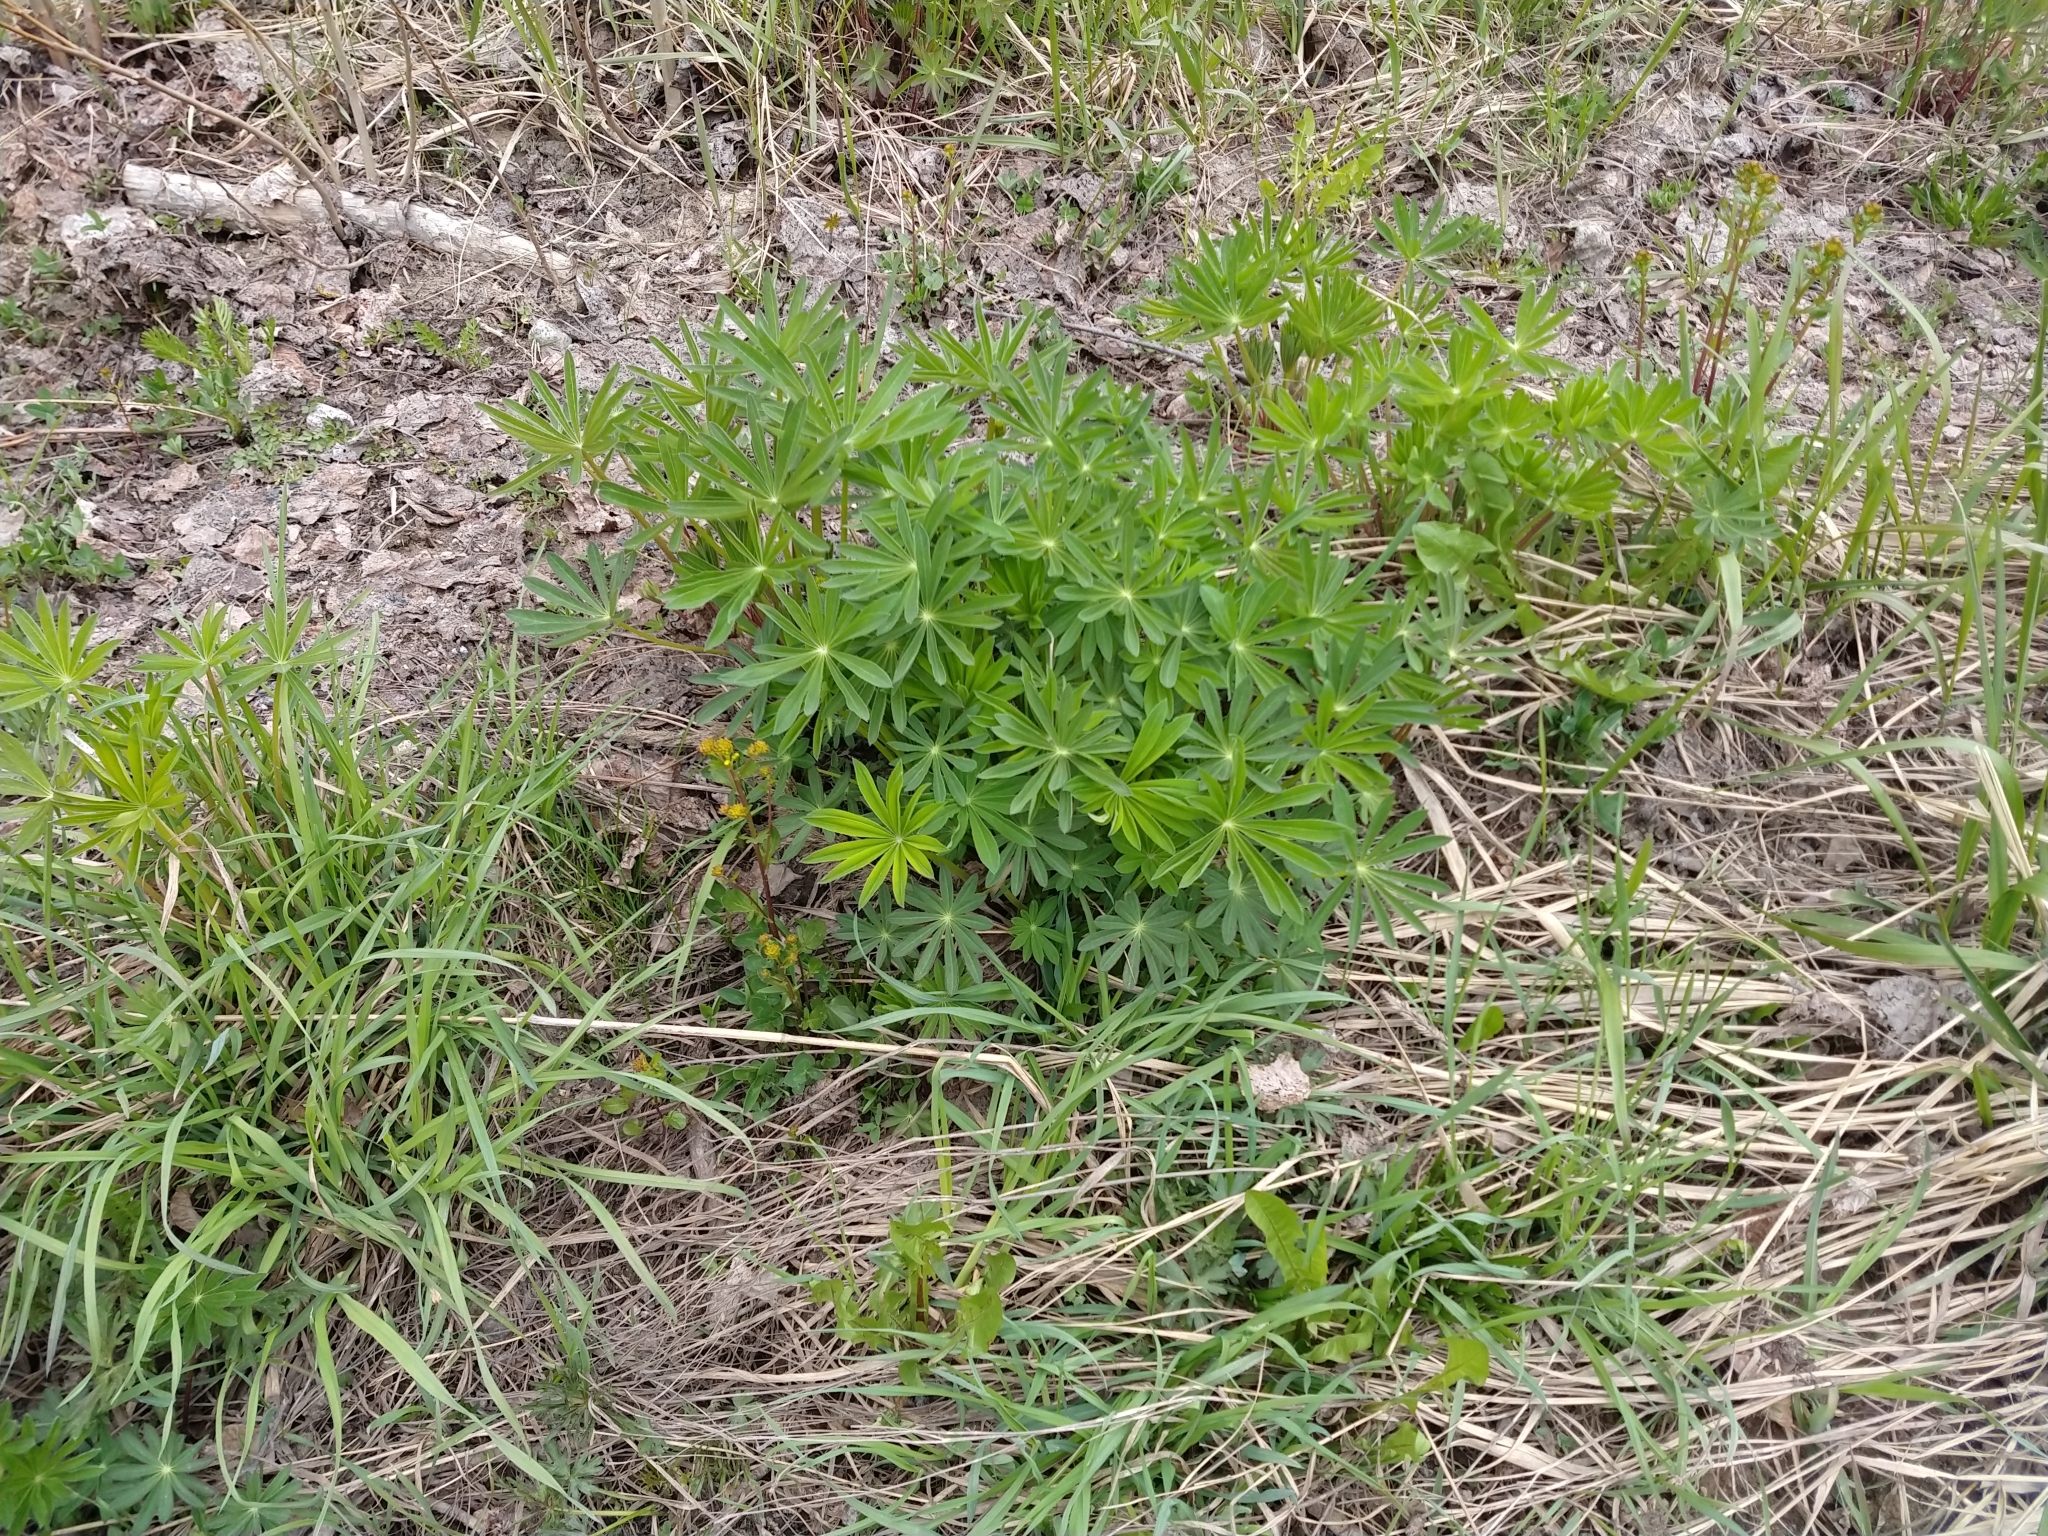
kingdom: Plantae
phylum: Tracheophyta
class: Magnoliopsida
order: Fabales
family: Fabaceae
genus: Lupinus
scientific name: Lupinus polyphyllus
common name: Garden lupin
